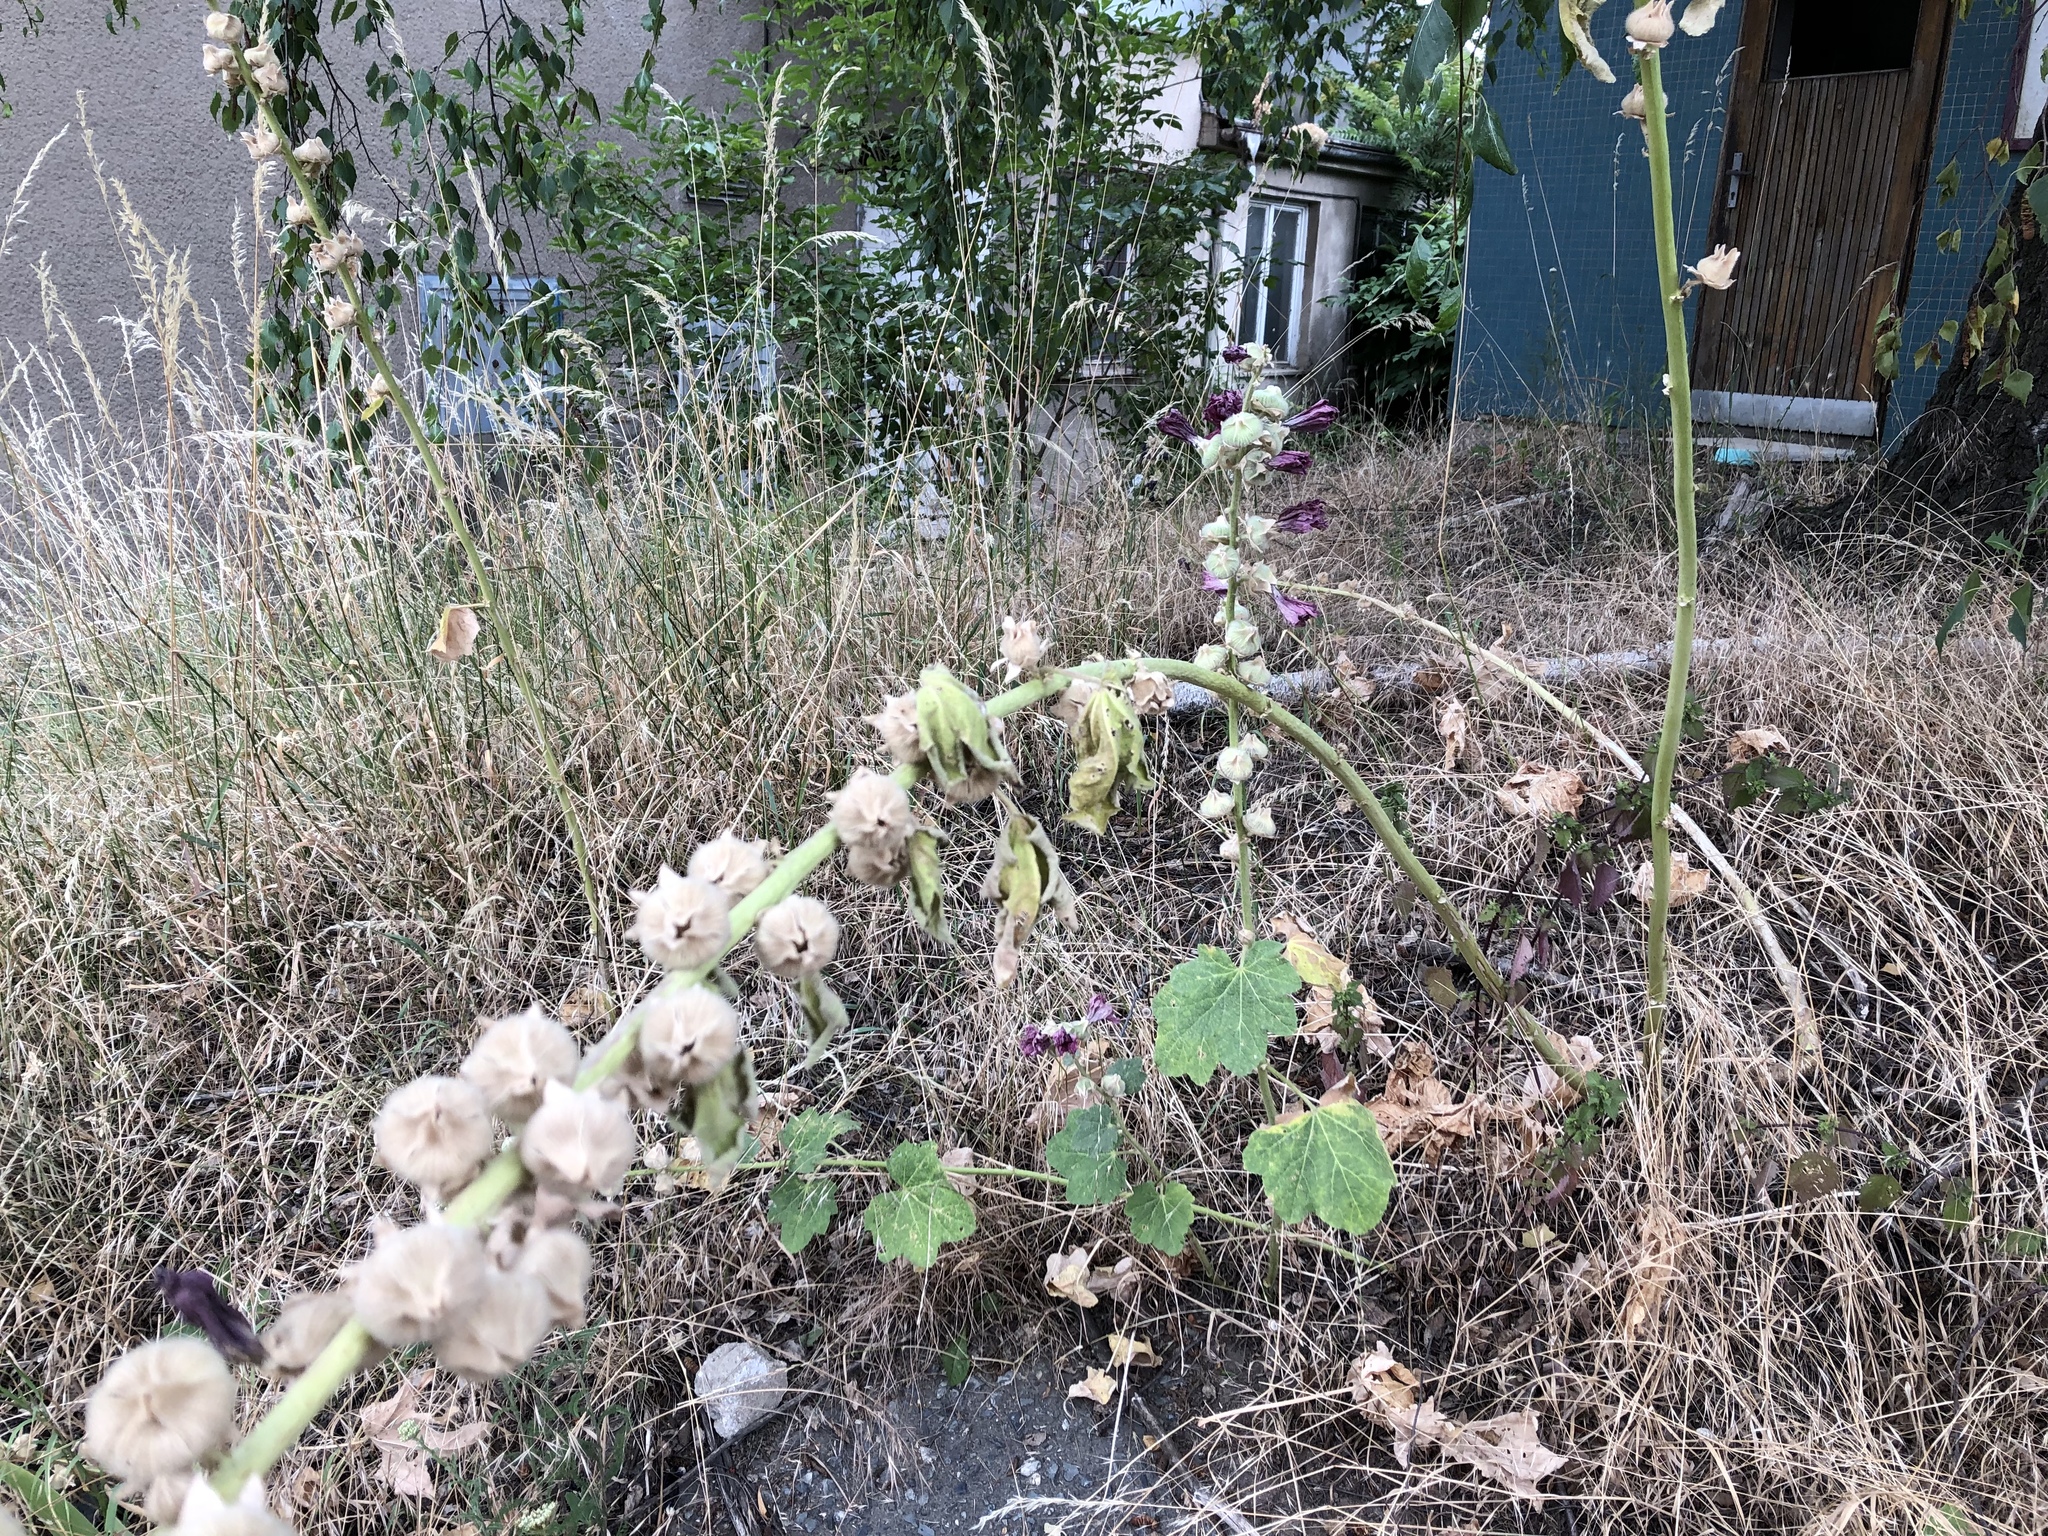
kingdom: Plantae
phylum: Tracheophyta
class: Magnoliopsida
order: Malvales
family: Malvaceae
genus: Alcea
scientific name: Alcea rosea
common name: Hollyhock
